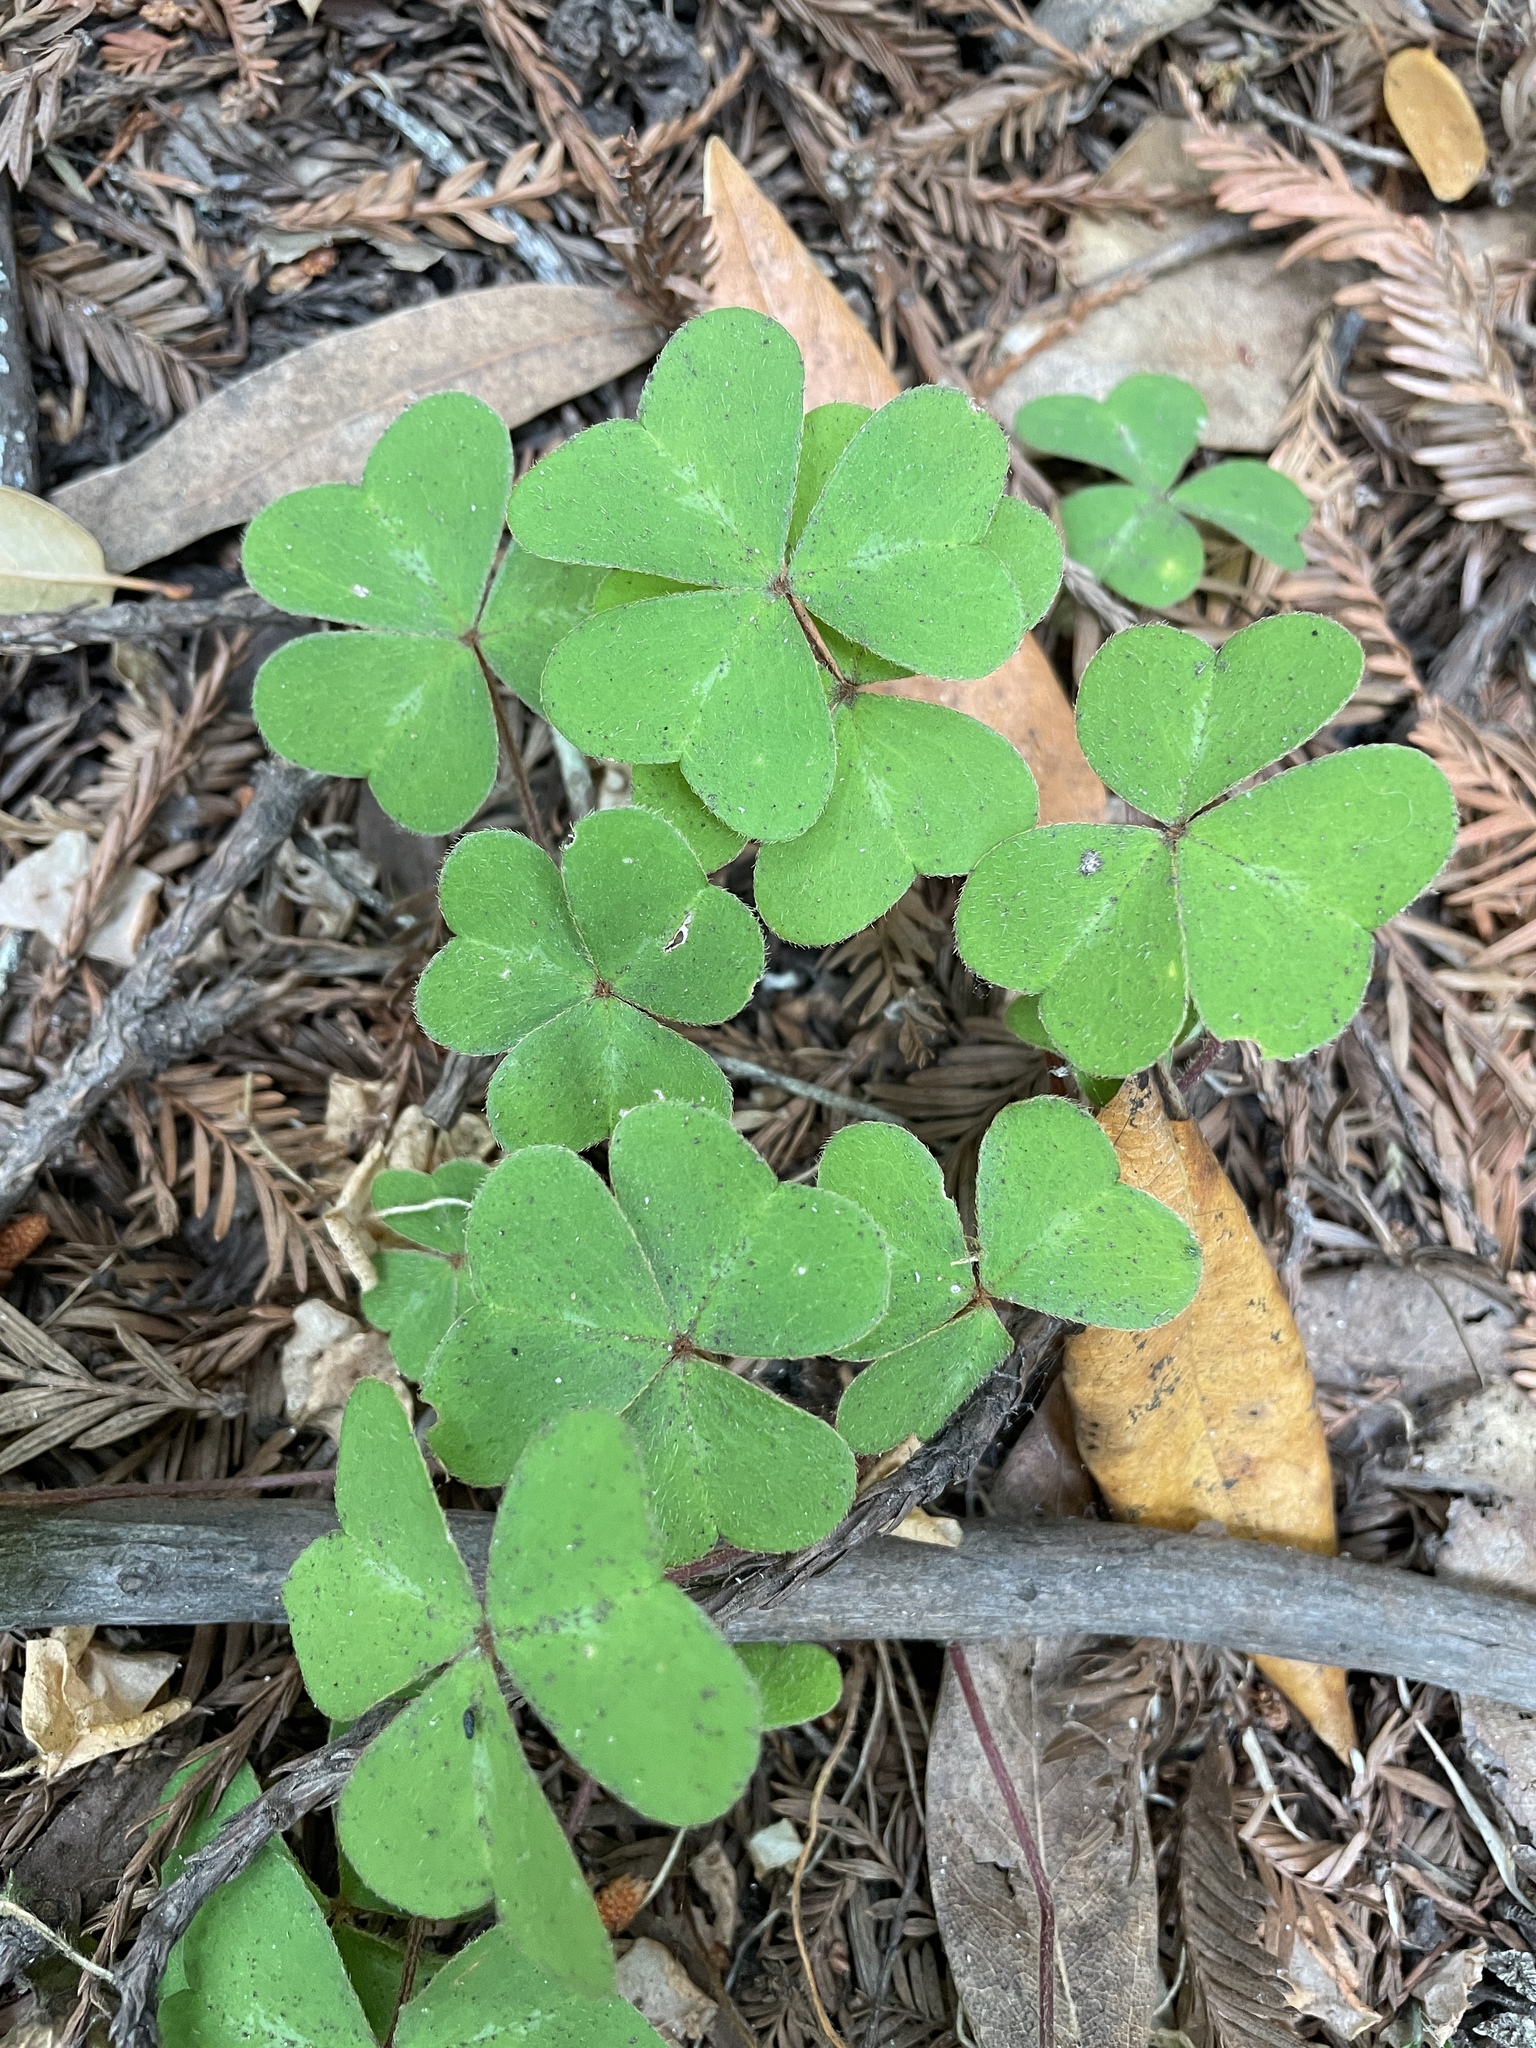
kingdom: Plantae
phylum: Tracheophyta
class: Magnoliopsida
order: Oxalidales
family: Oxalidaceae
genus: Oxalis
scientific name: Oxalis oregana
